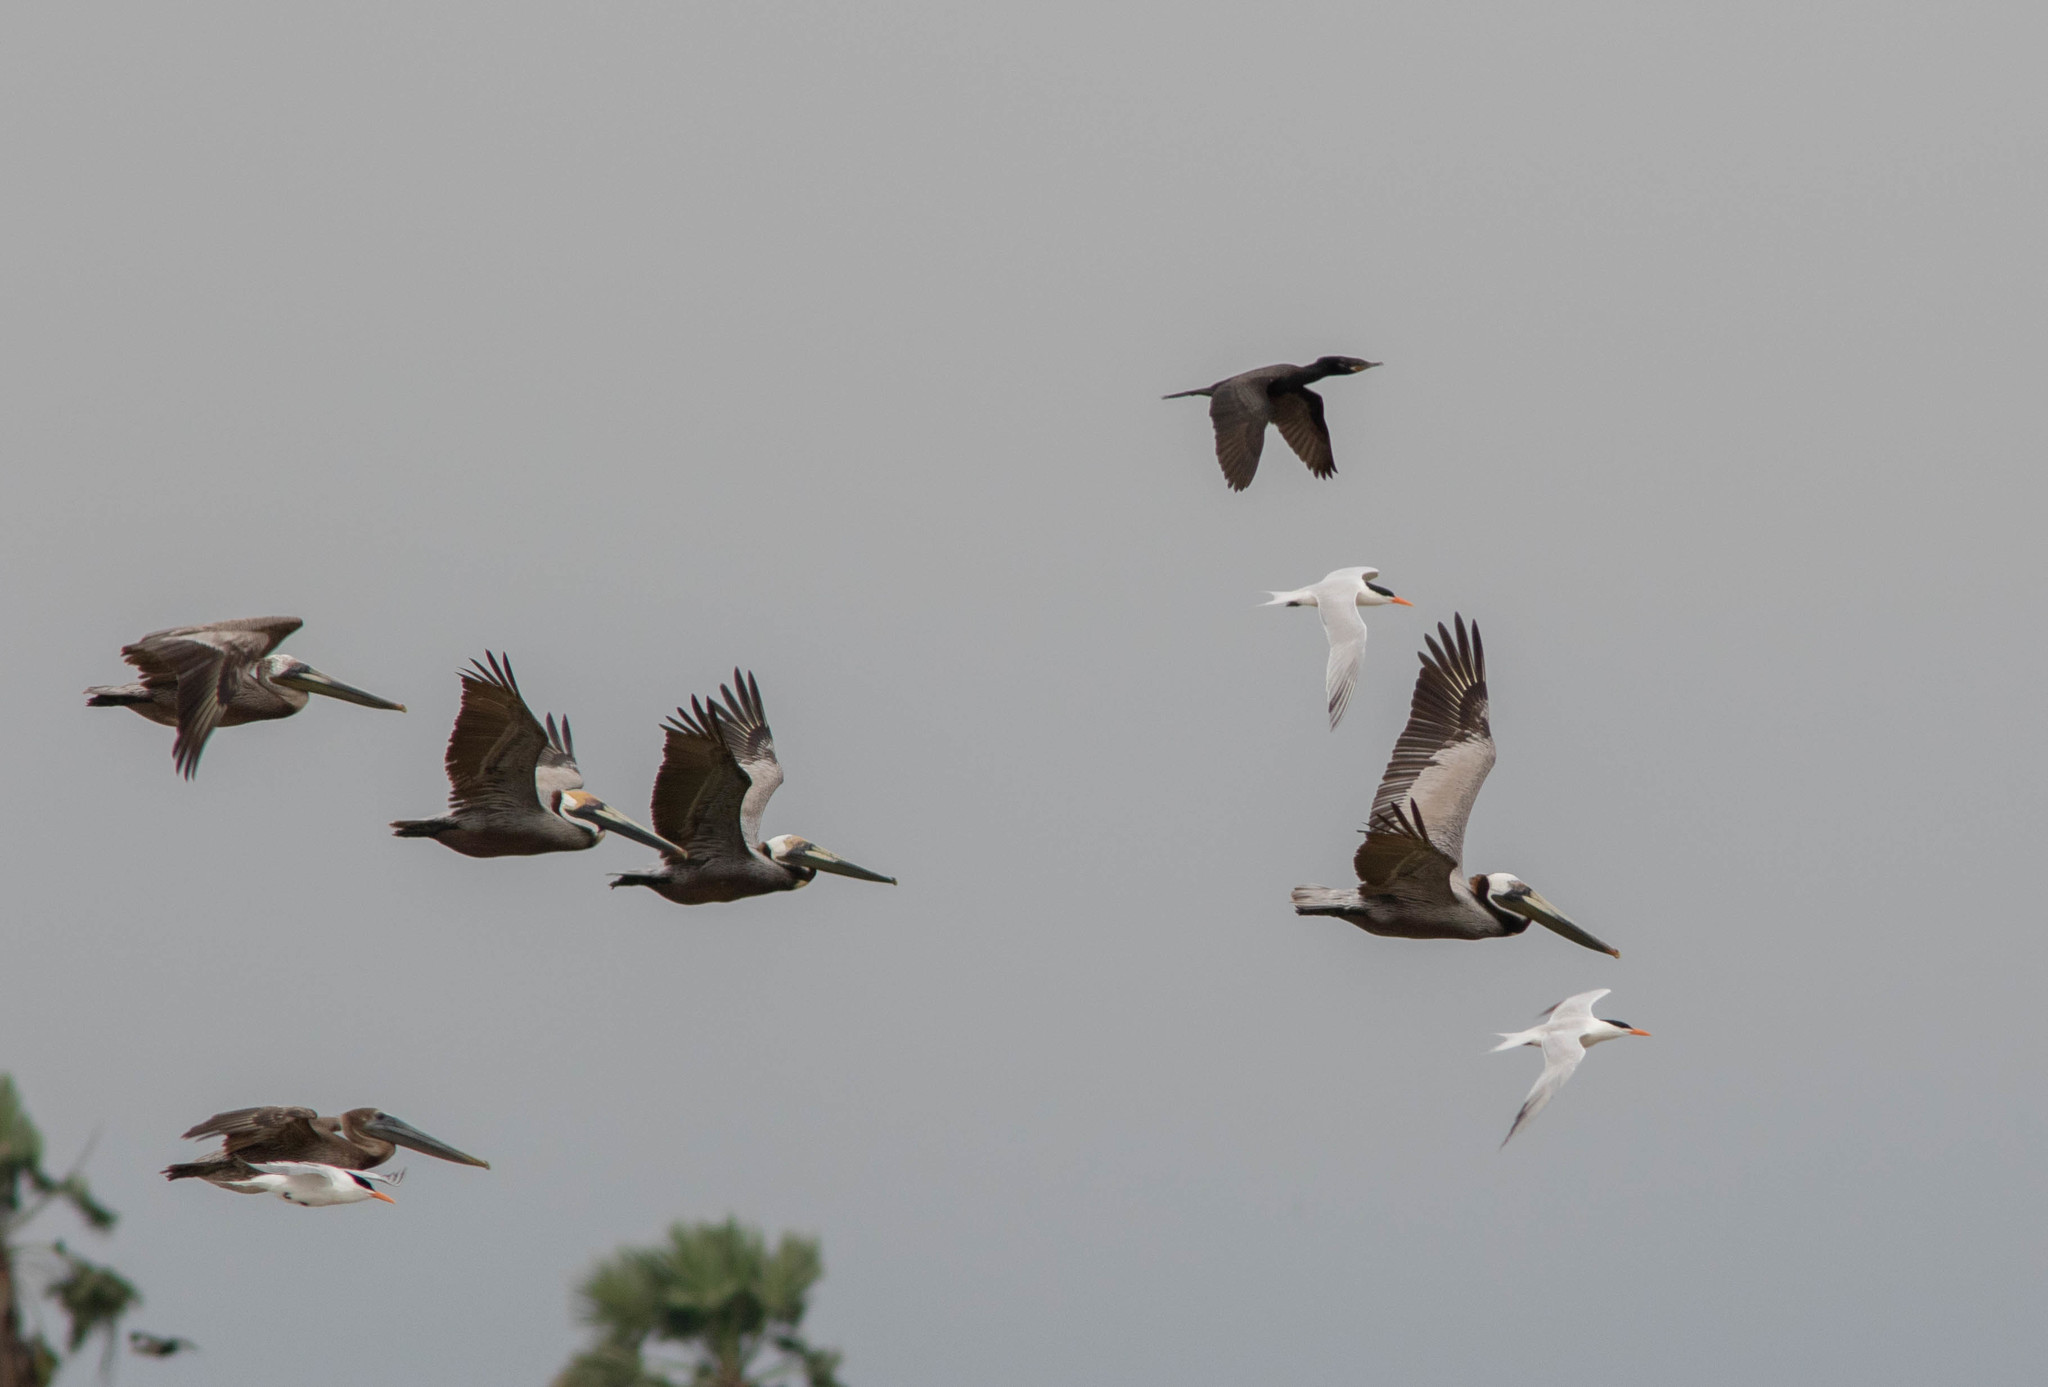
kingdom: Animalia
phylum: Chordata
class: Aves
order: Pelecaniformes
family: Pelecanidae
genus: Pelecanus
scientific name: Pelecanus occidentalis
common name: Brown pelican
